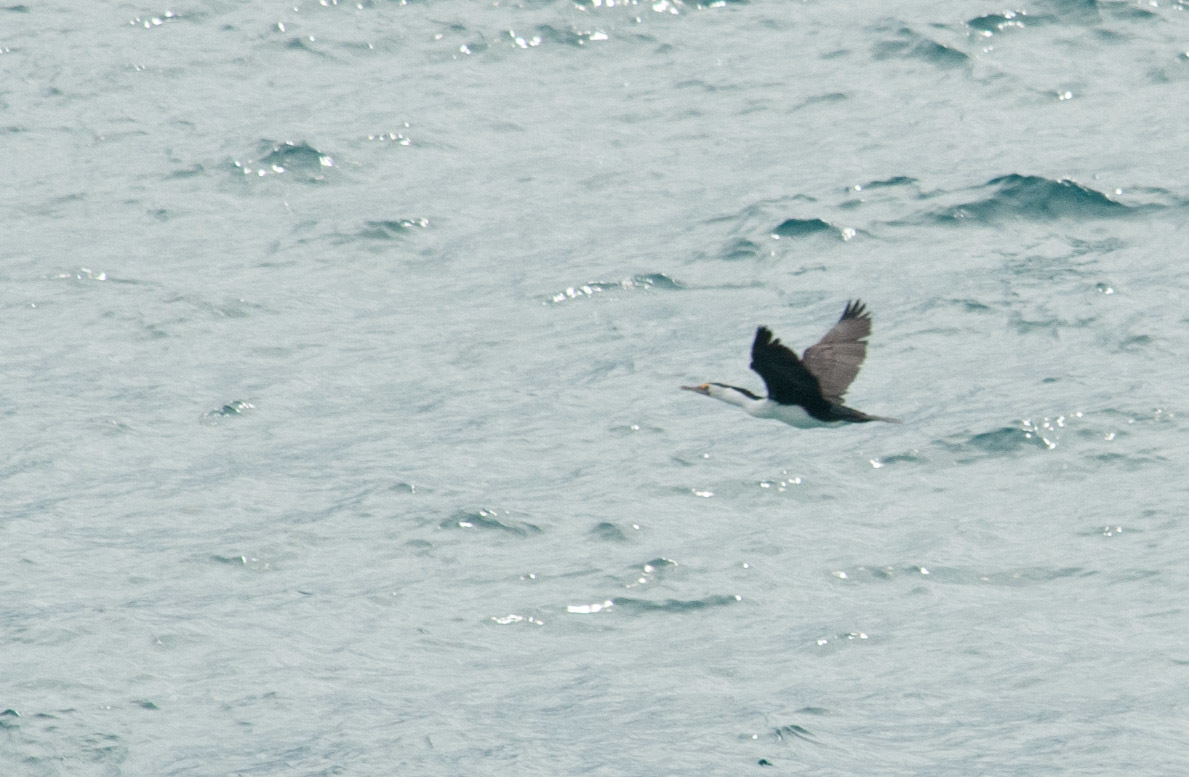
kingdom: Animalia
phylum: Chordata
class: Aves
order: Suliformes
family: Phalacrocoracidae
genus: Phalacrocorax
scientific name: Phalacrocorax varius
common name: Pied cormorant
